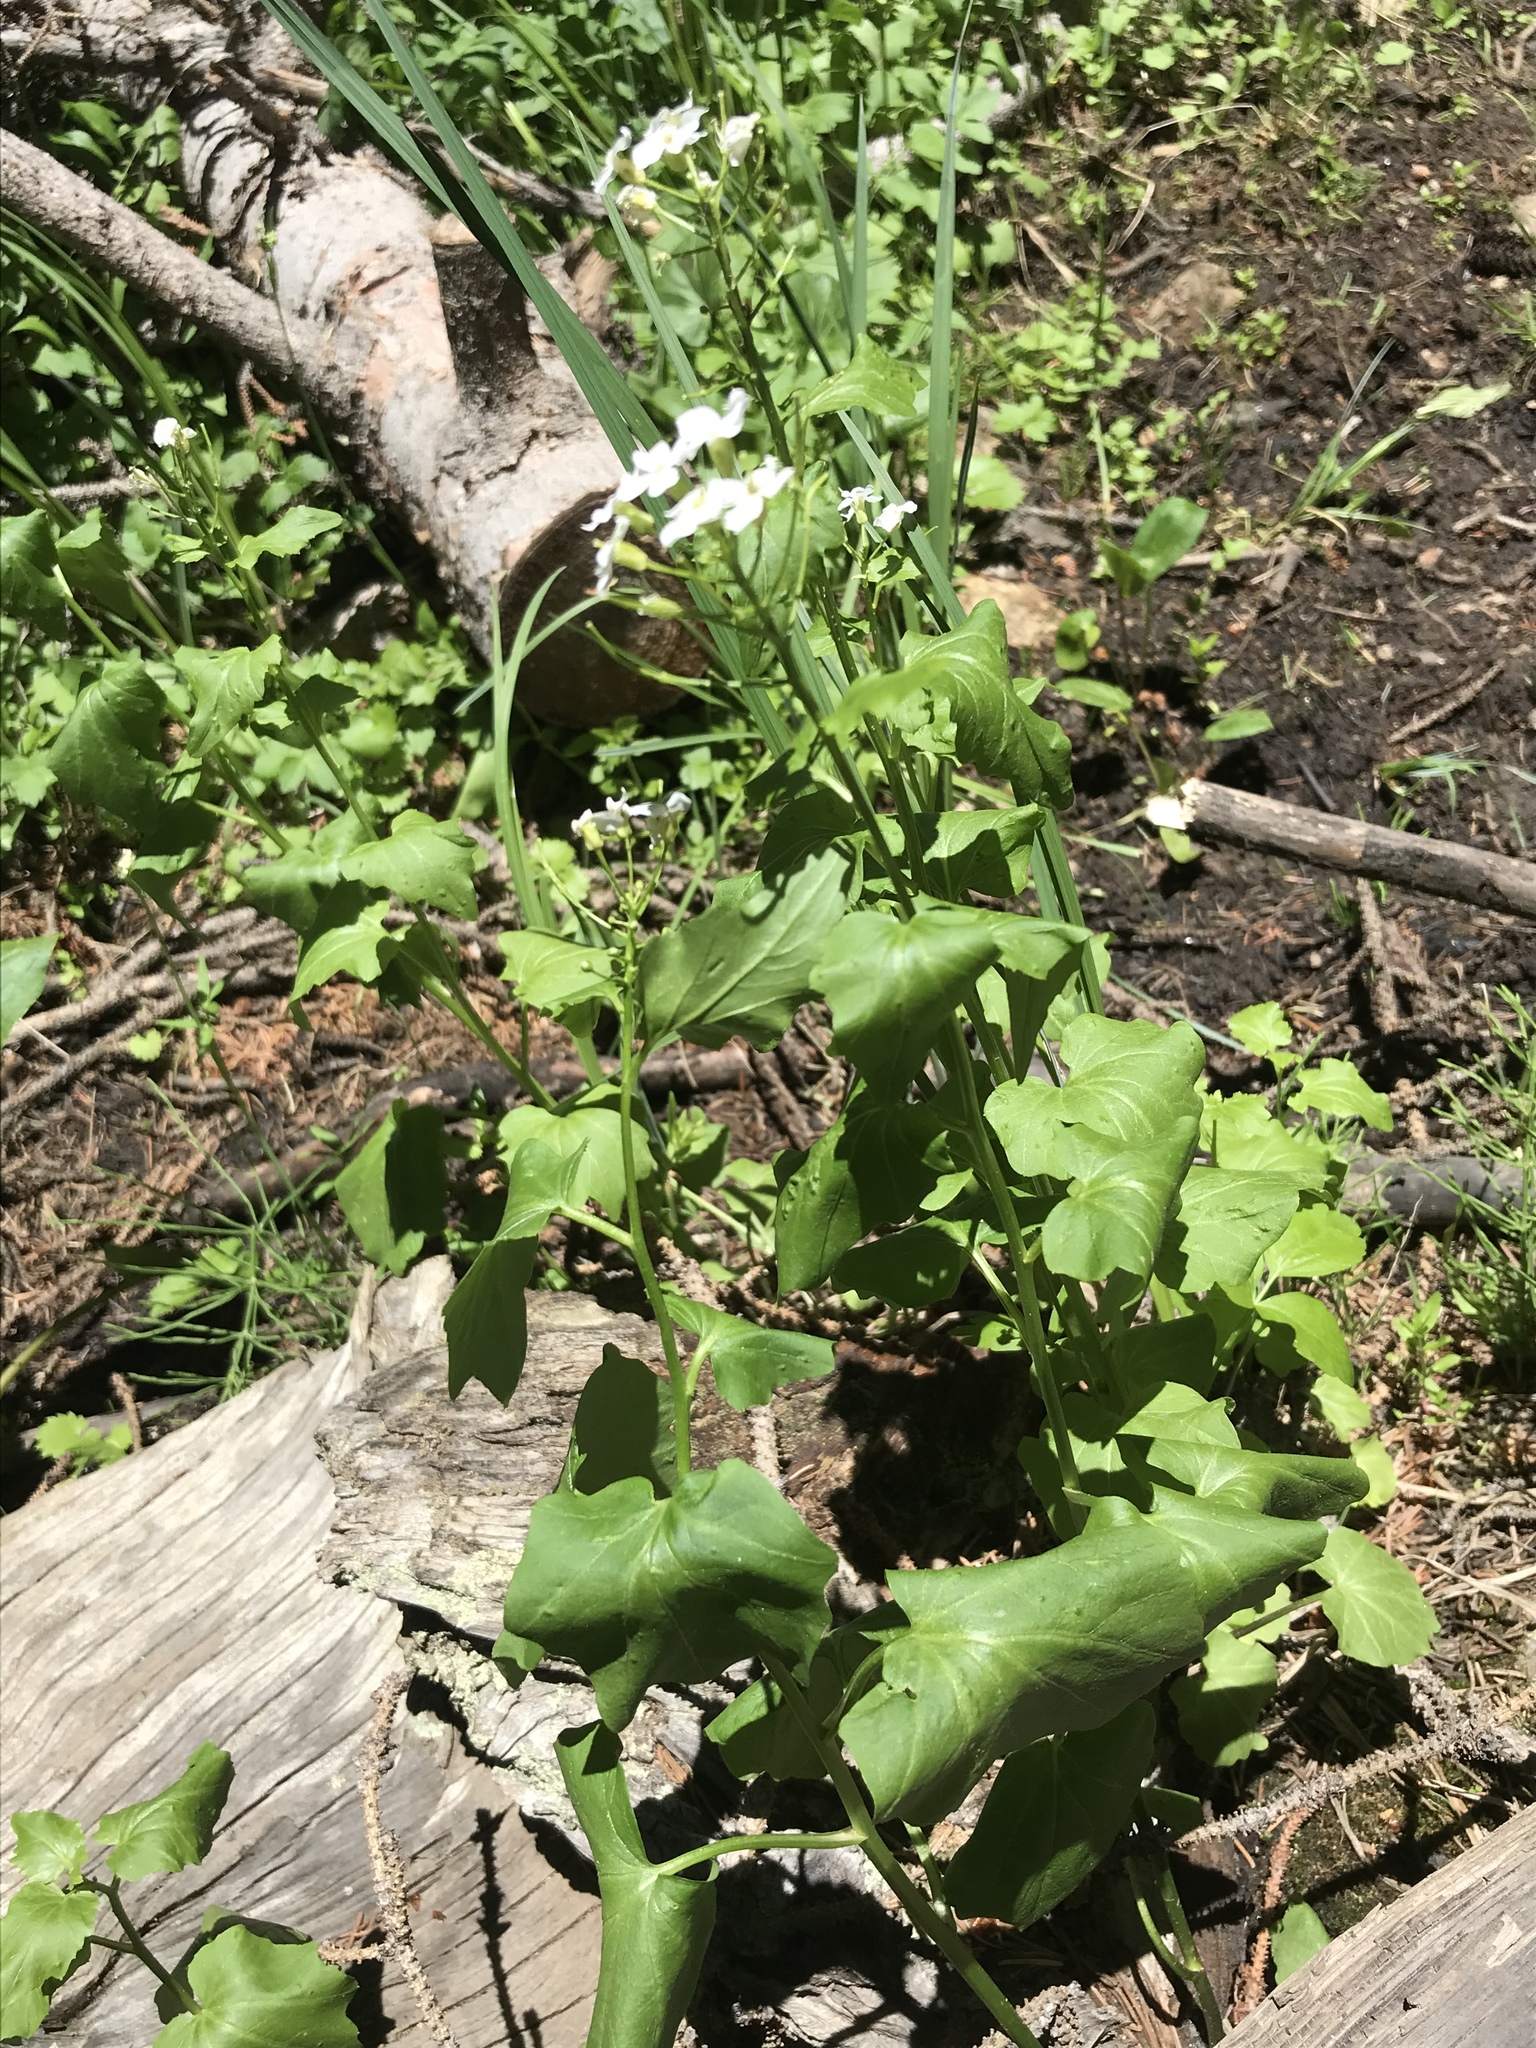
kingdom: Plantae
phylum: Tracheophyta
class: Magnoliopsida
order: Brassicales
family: Brassicaceae
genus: Cardamine
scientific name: Cardamine cordifolia
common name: Heart-leaf bittercress
